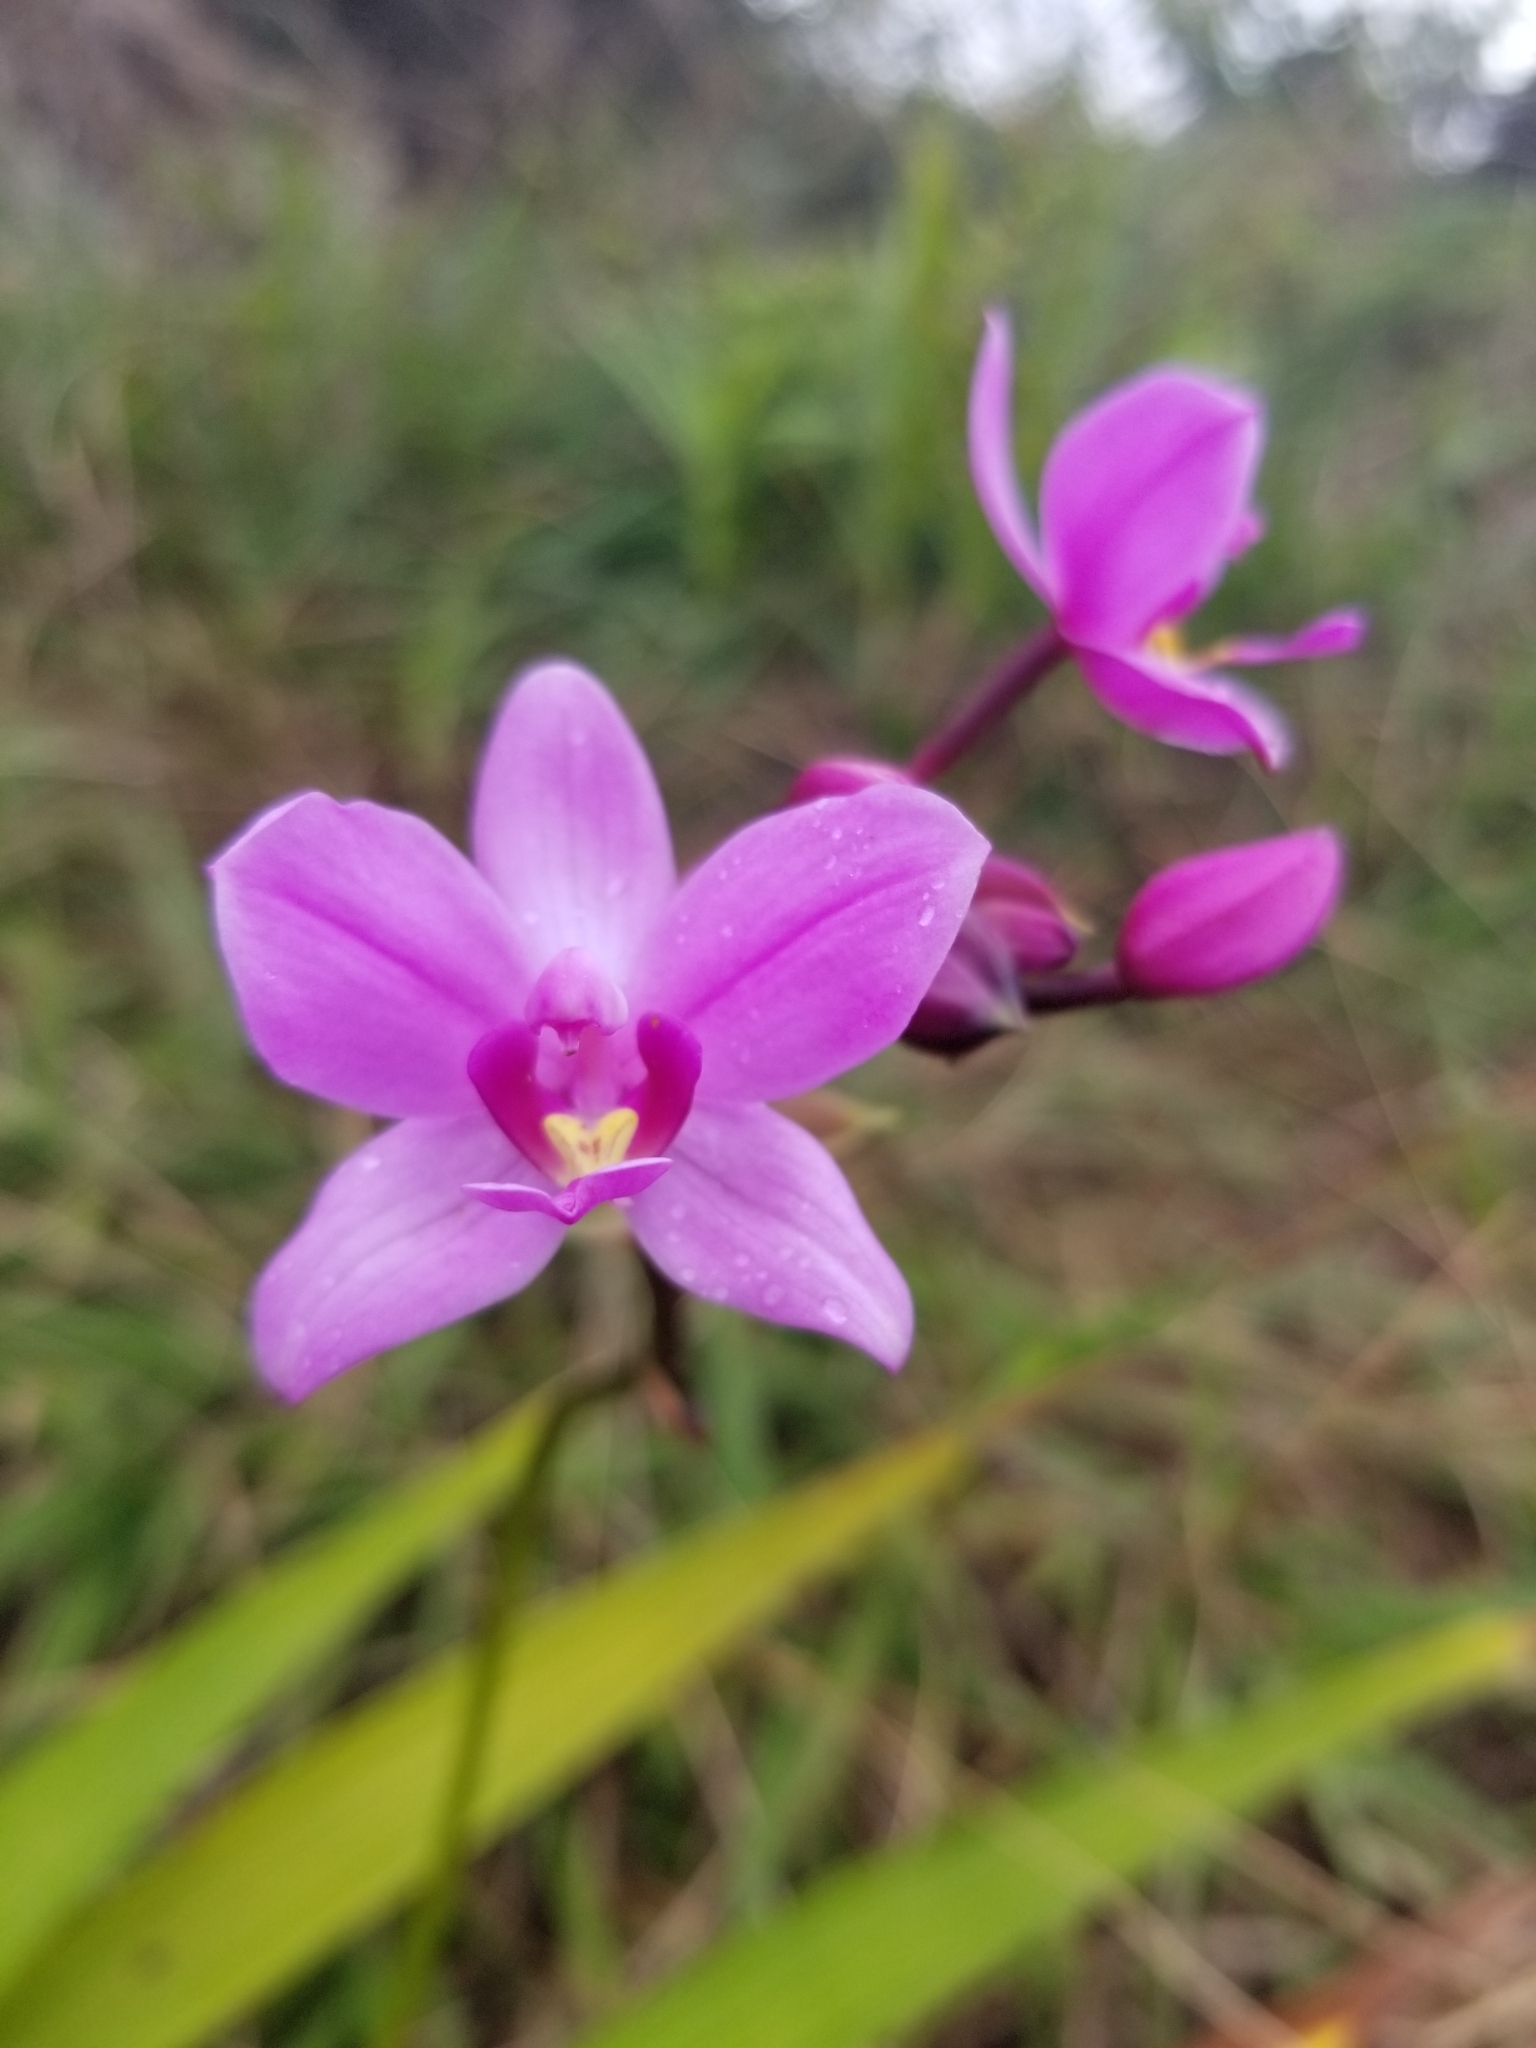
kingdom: Plantae
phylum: Tracheophyta
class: Liliopsida
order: Asparagales
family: Orchidaceae
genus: Spathoglottis
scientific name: Spathoglottis plicata
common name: Philippine ground orchid
